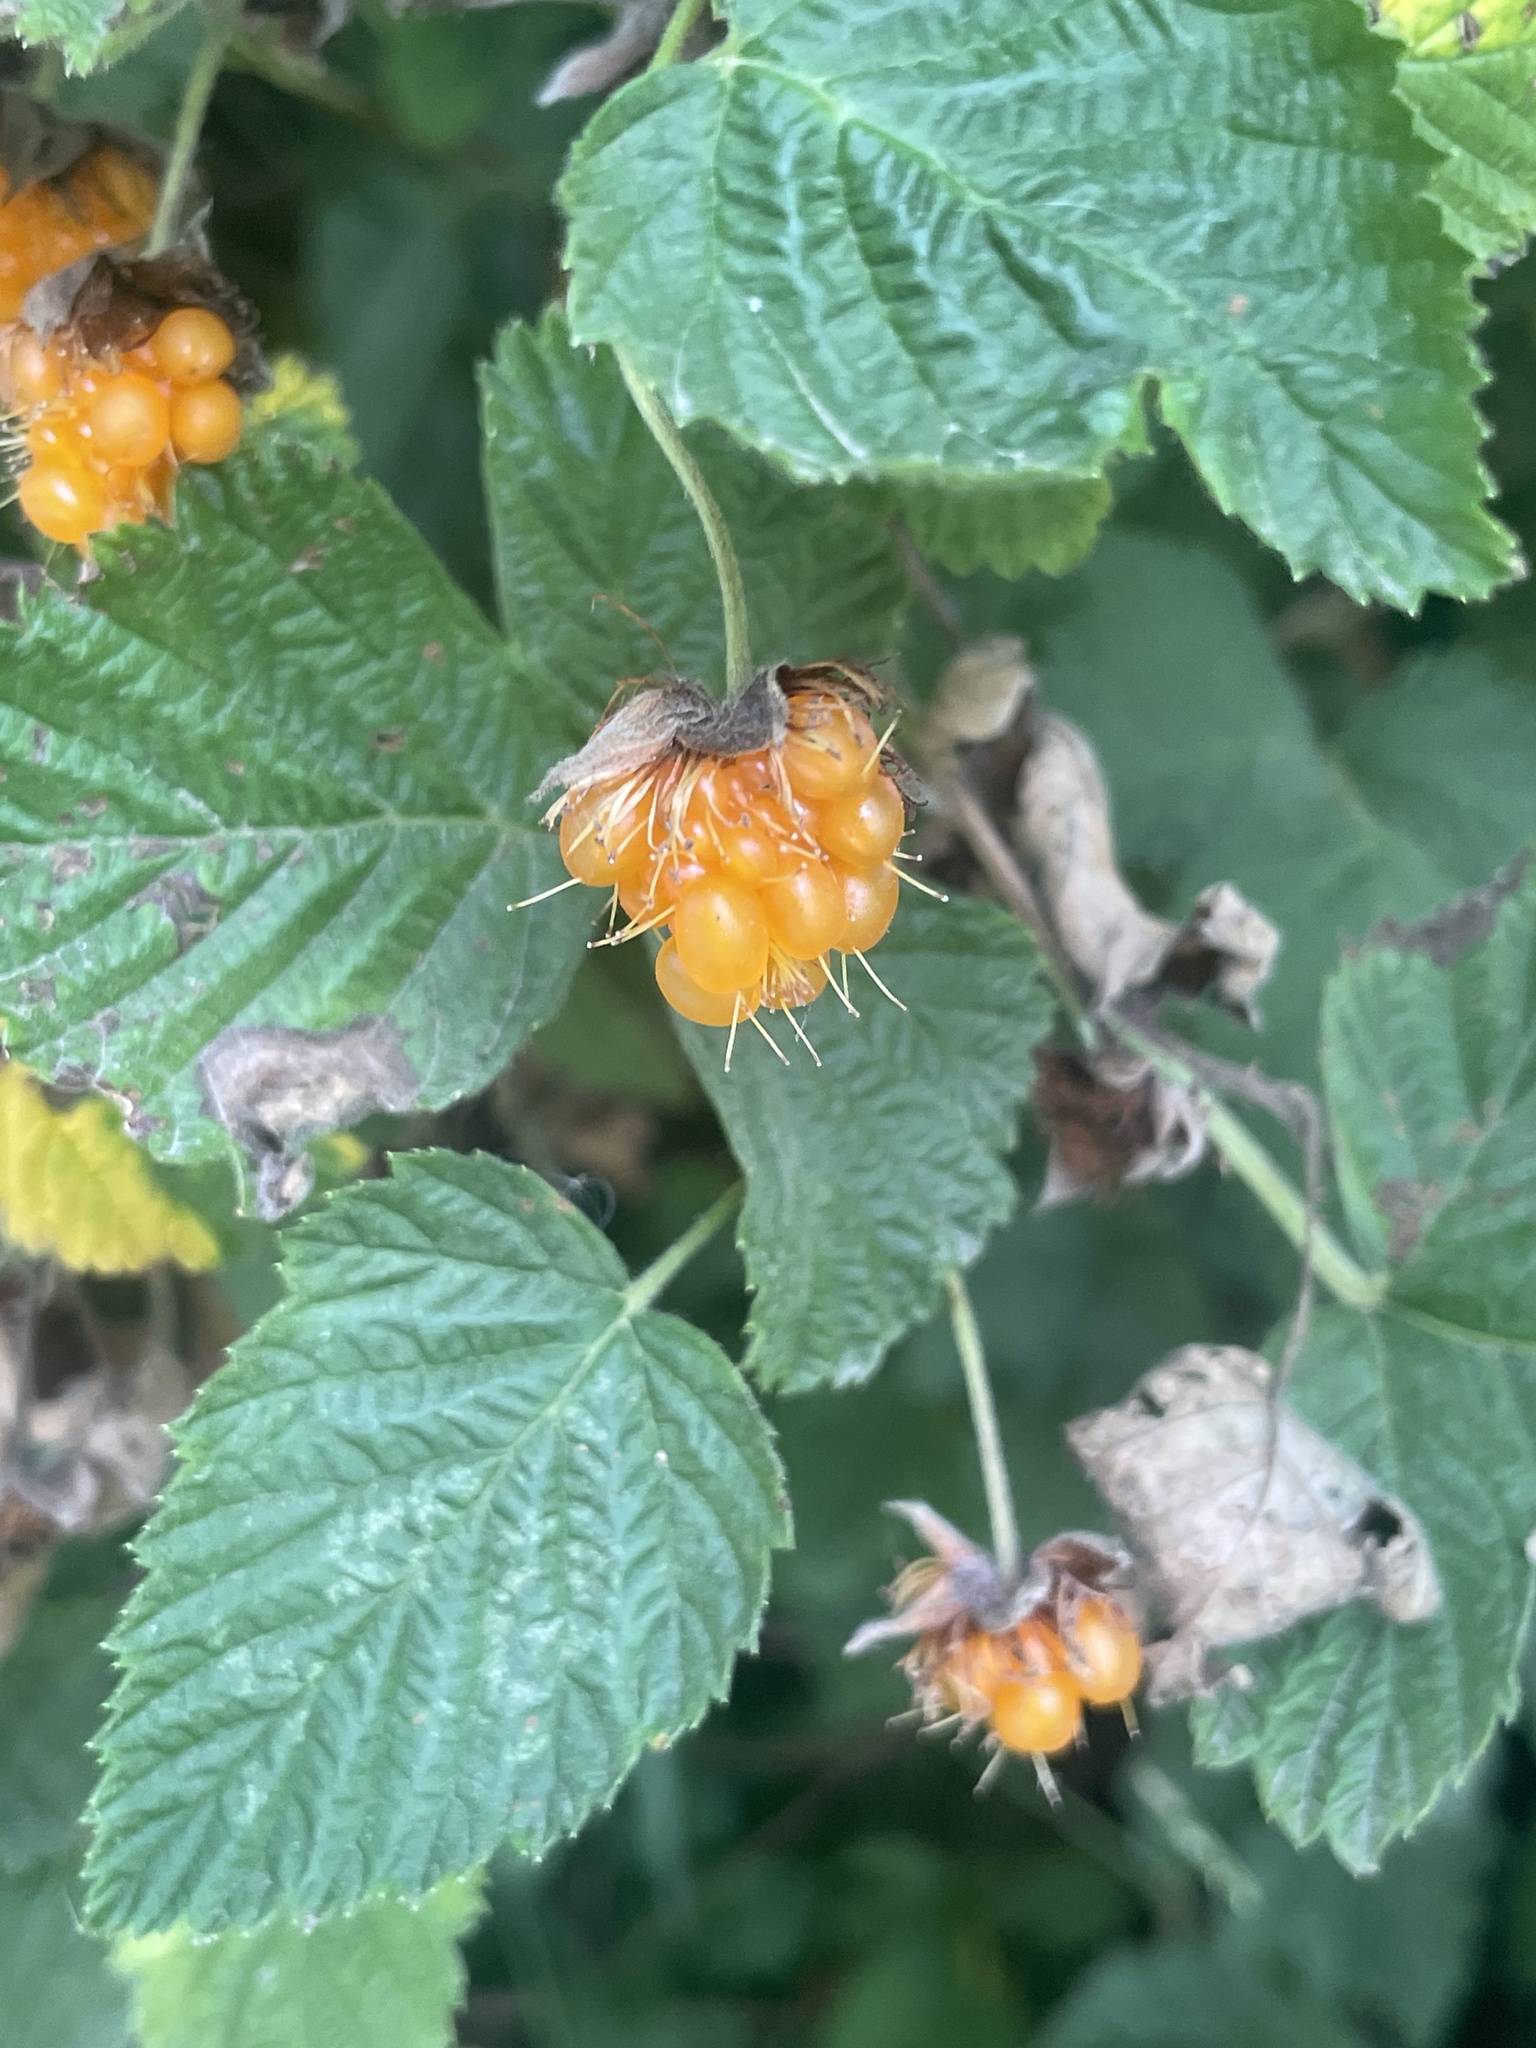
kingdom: Plantae
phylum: Tracheophyta
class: Magnoliopsida
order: Rosales
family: Rosaceae
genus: Rubus
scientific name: Rubus spectabilis
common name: Salmonberry
